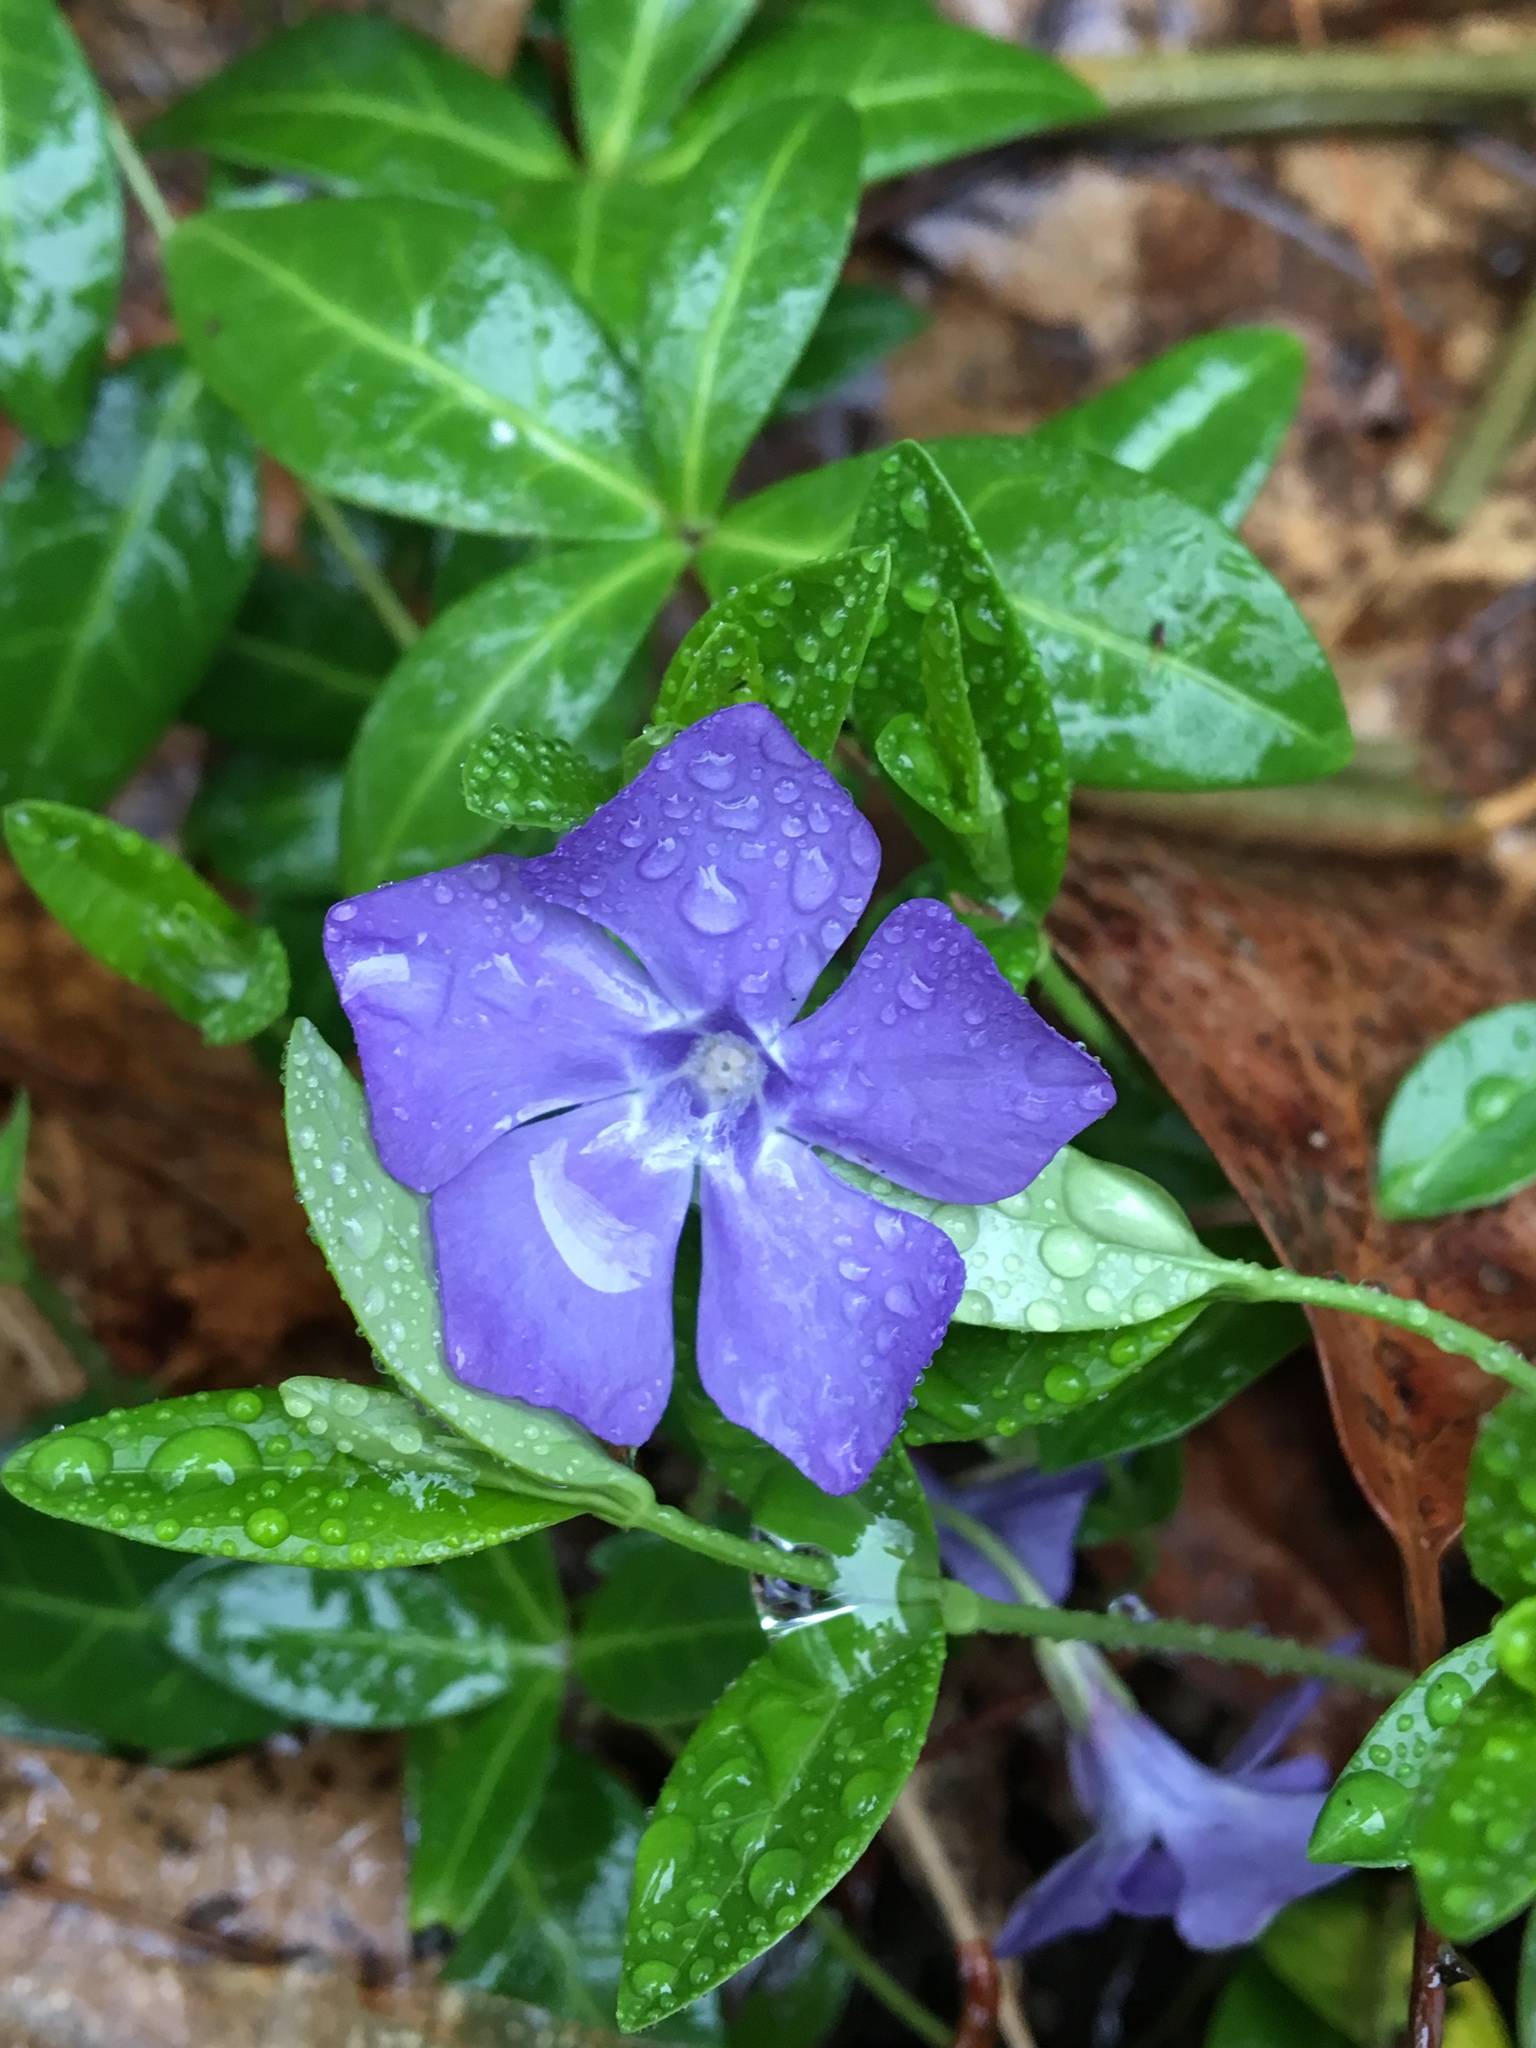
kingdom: Plantae
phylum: Tracheophyta
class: Magnoliopsida
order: Gentianales
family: Apocynaceae
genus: Vinca
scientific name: Vinca minor
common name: Lesser periwinkle
